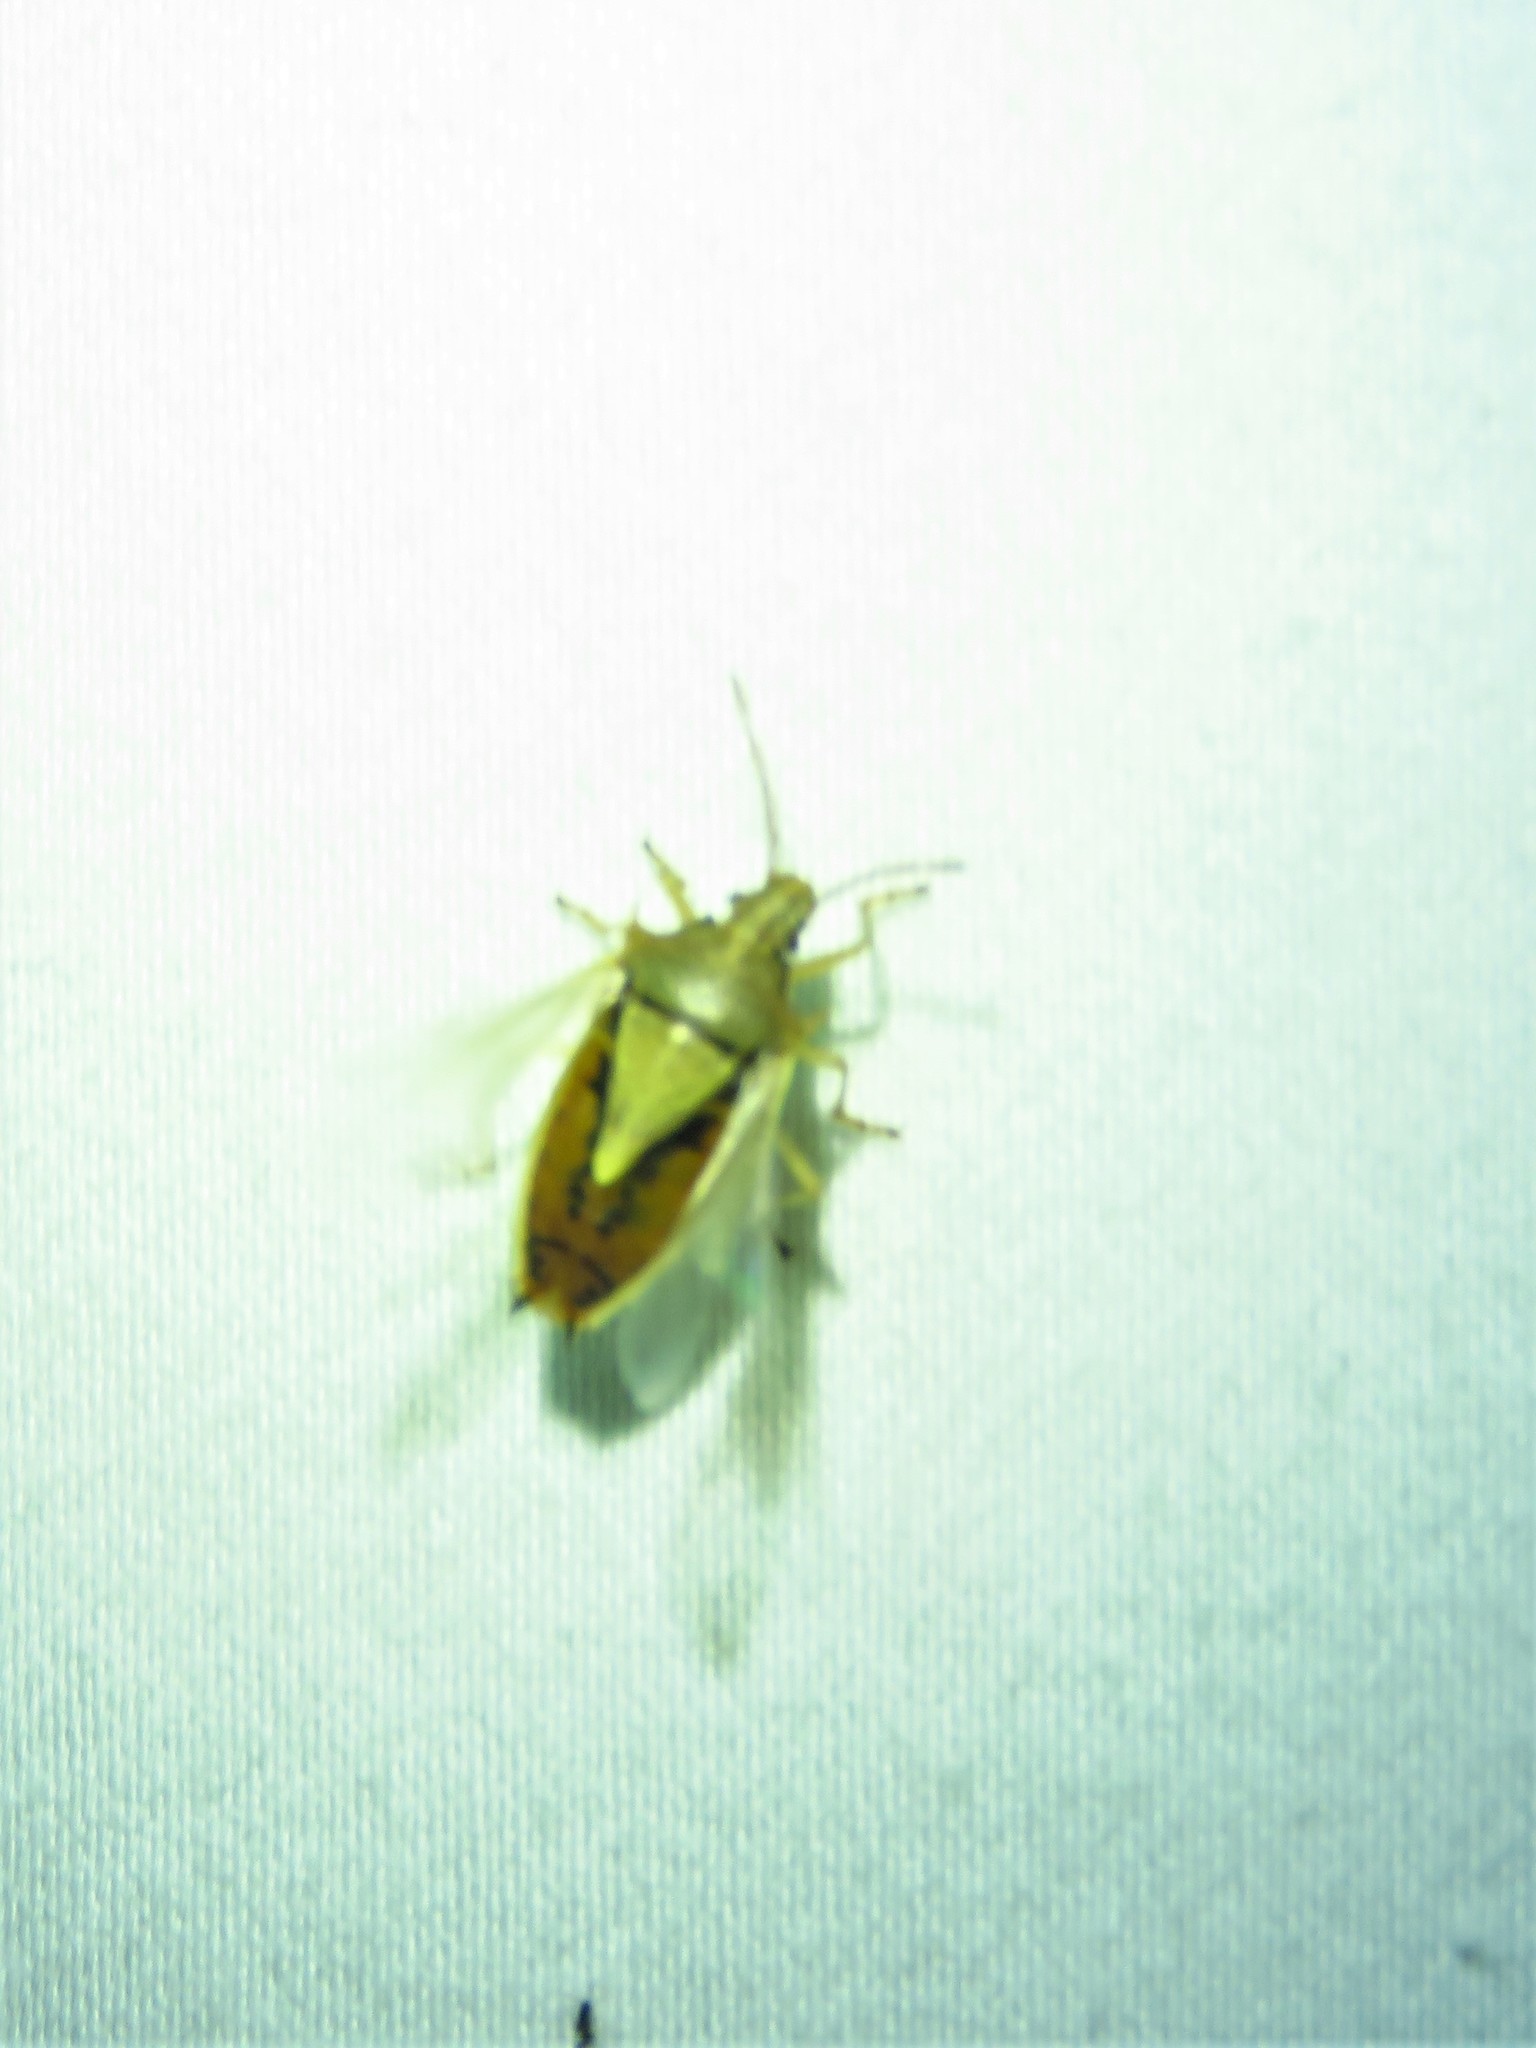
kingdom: Animalia
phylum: Arthropoda
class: Insecta
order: Hemiptera
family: Pentatomidae
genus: Oebalus
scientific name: Oebalus pugnax
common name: Rice stink bug
